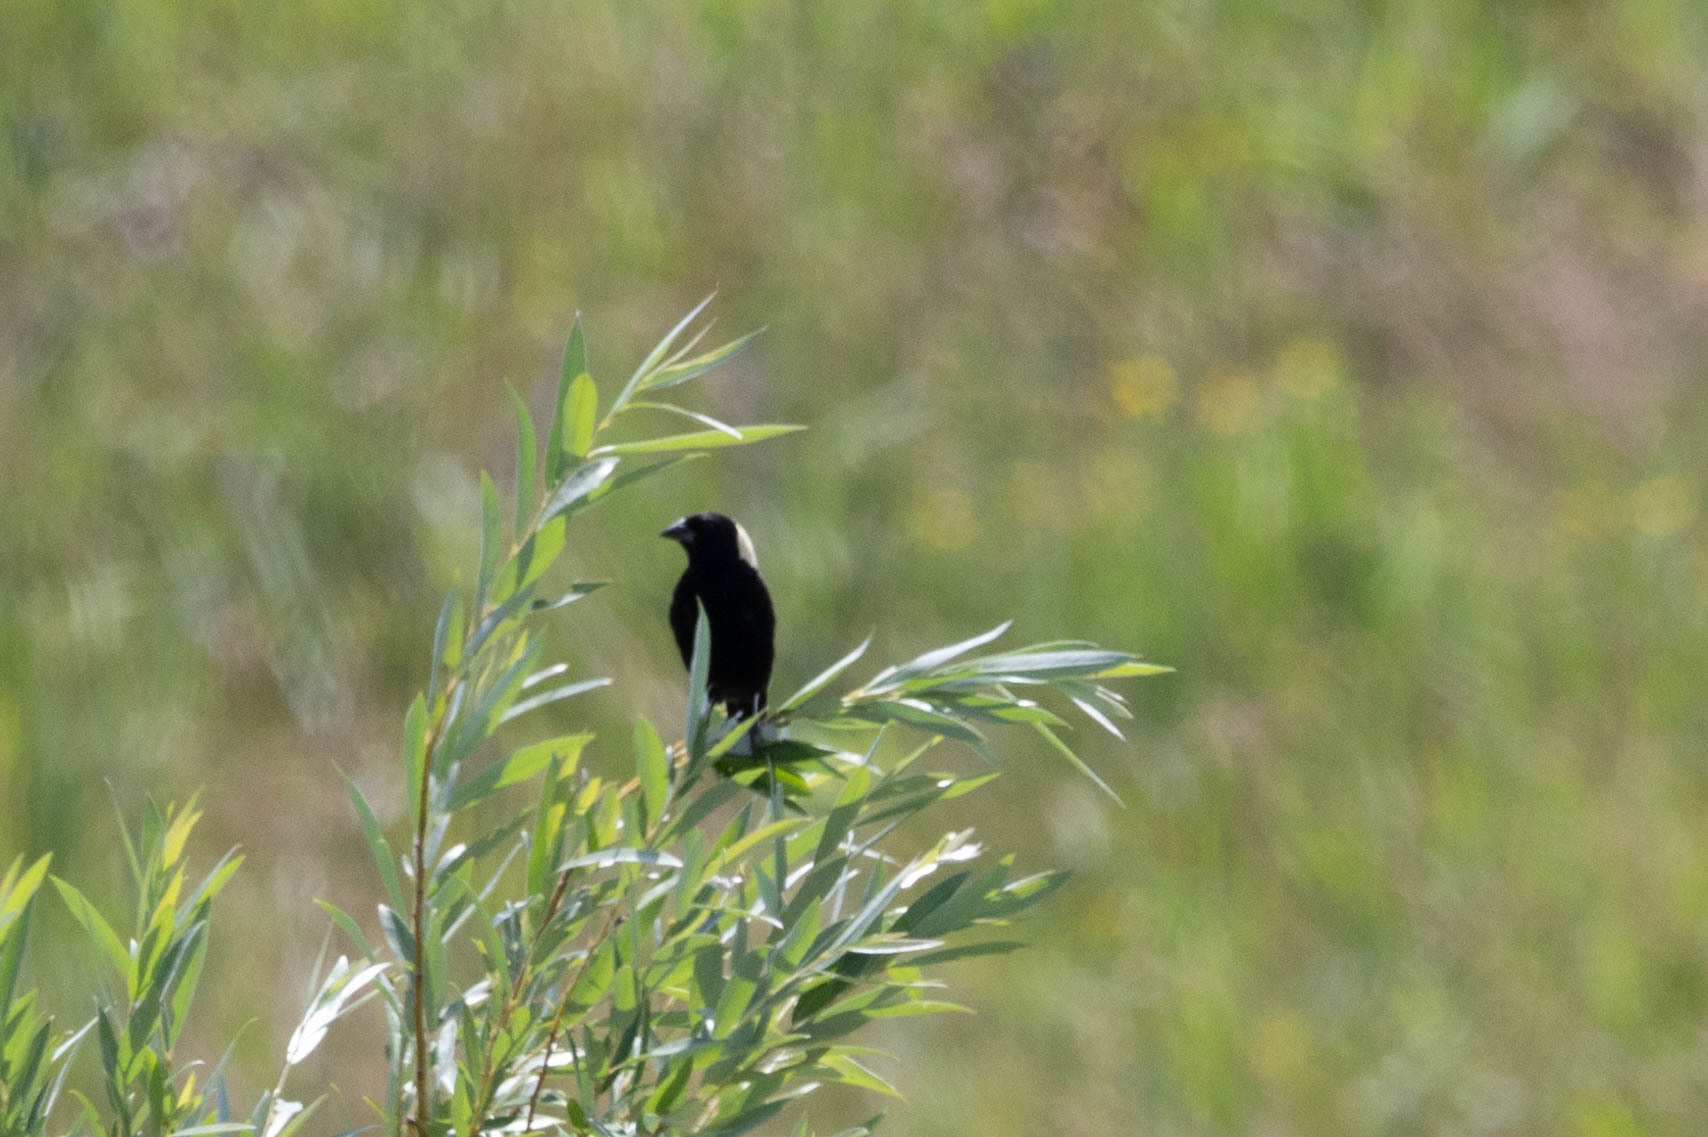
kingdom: Animalia
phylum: Chordata
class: Aves
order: Passeriformes
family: Icteridae
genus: Dolichonyx
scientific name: Dolichonyx oryzivorus
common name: Bobolink
